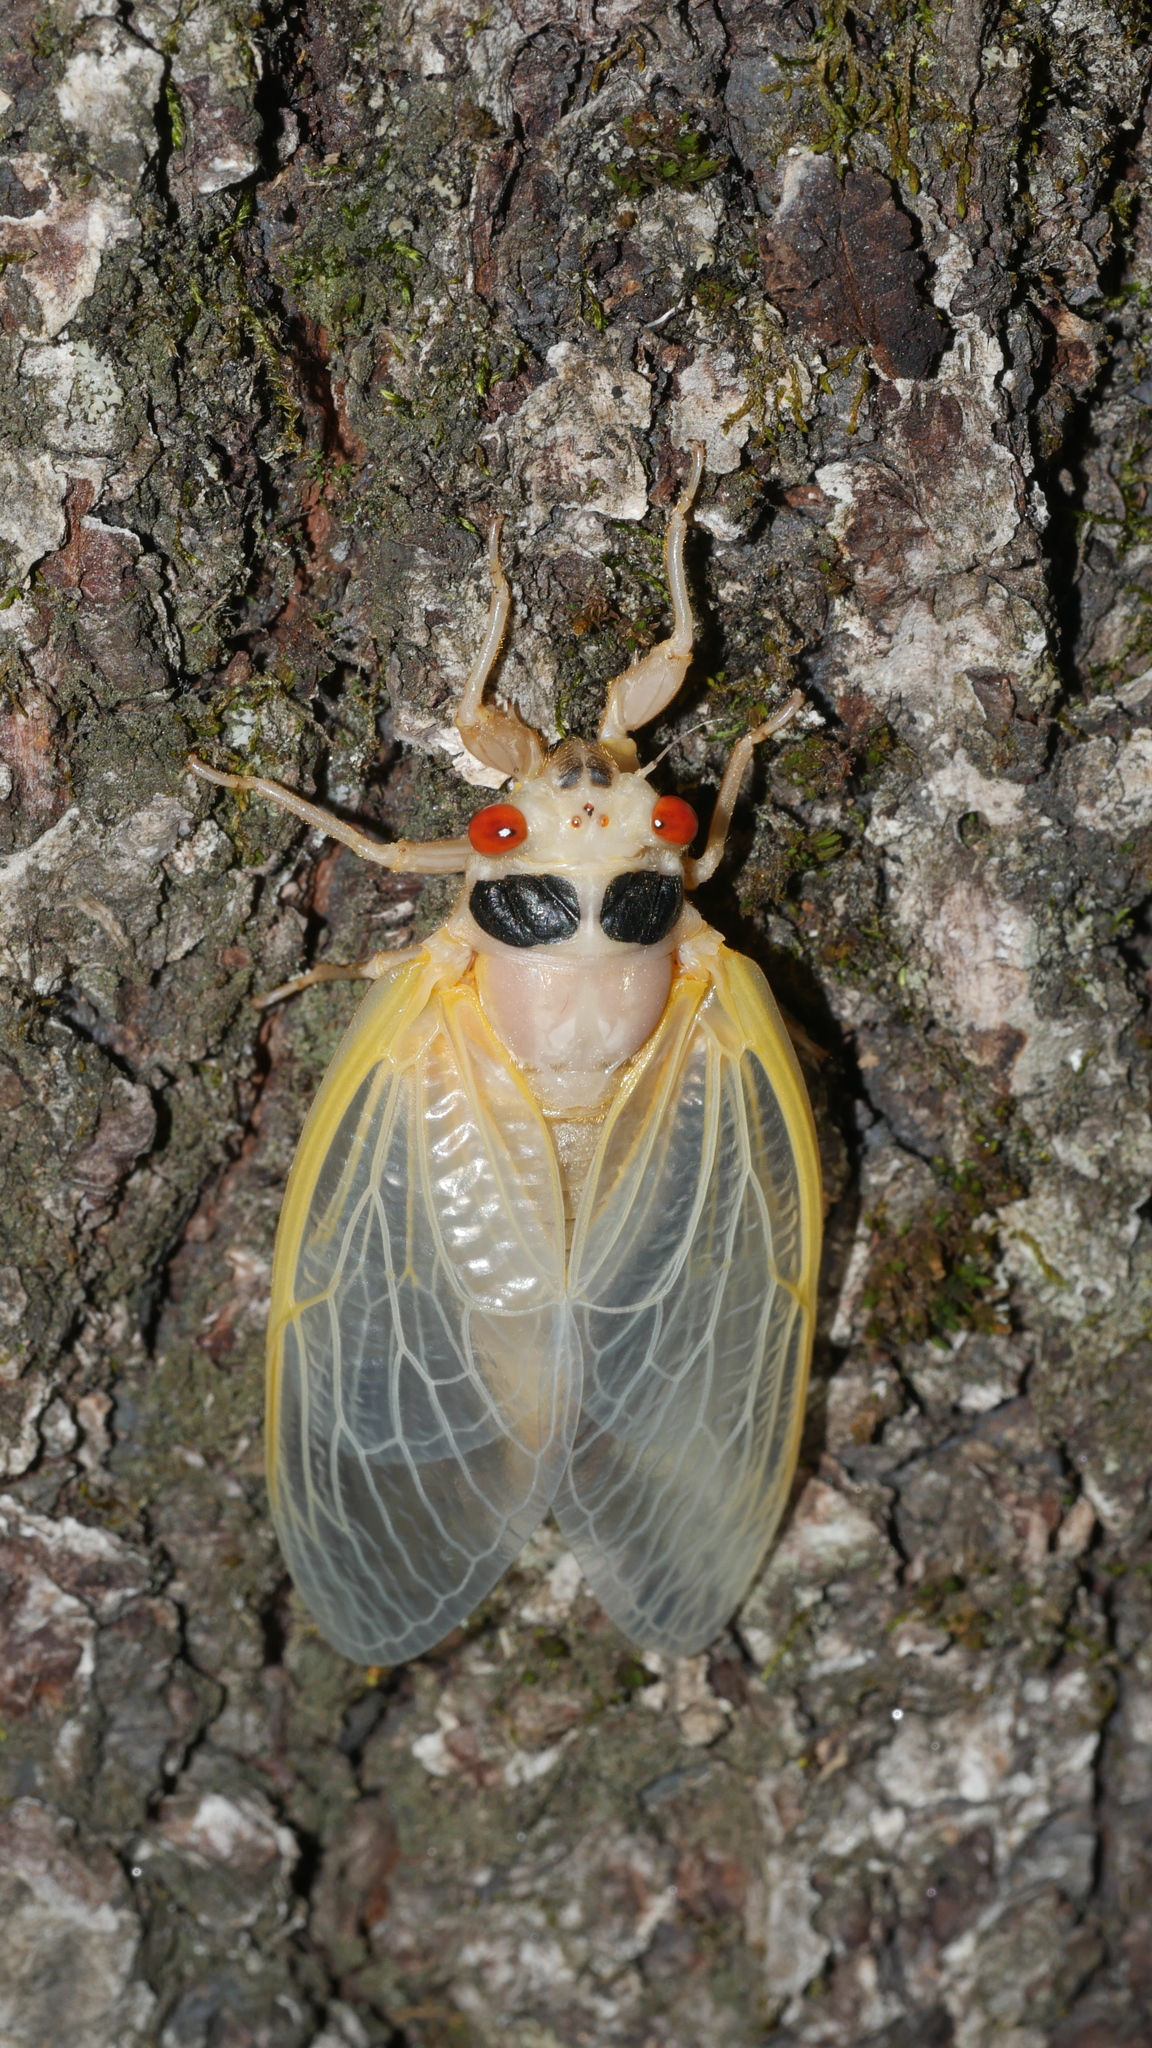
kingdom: Animalia
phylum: Arthropoda
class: Insecta
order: Hemiptera
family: Cicadidae
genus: Magicicada
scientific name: Magicicada
